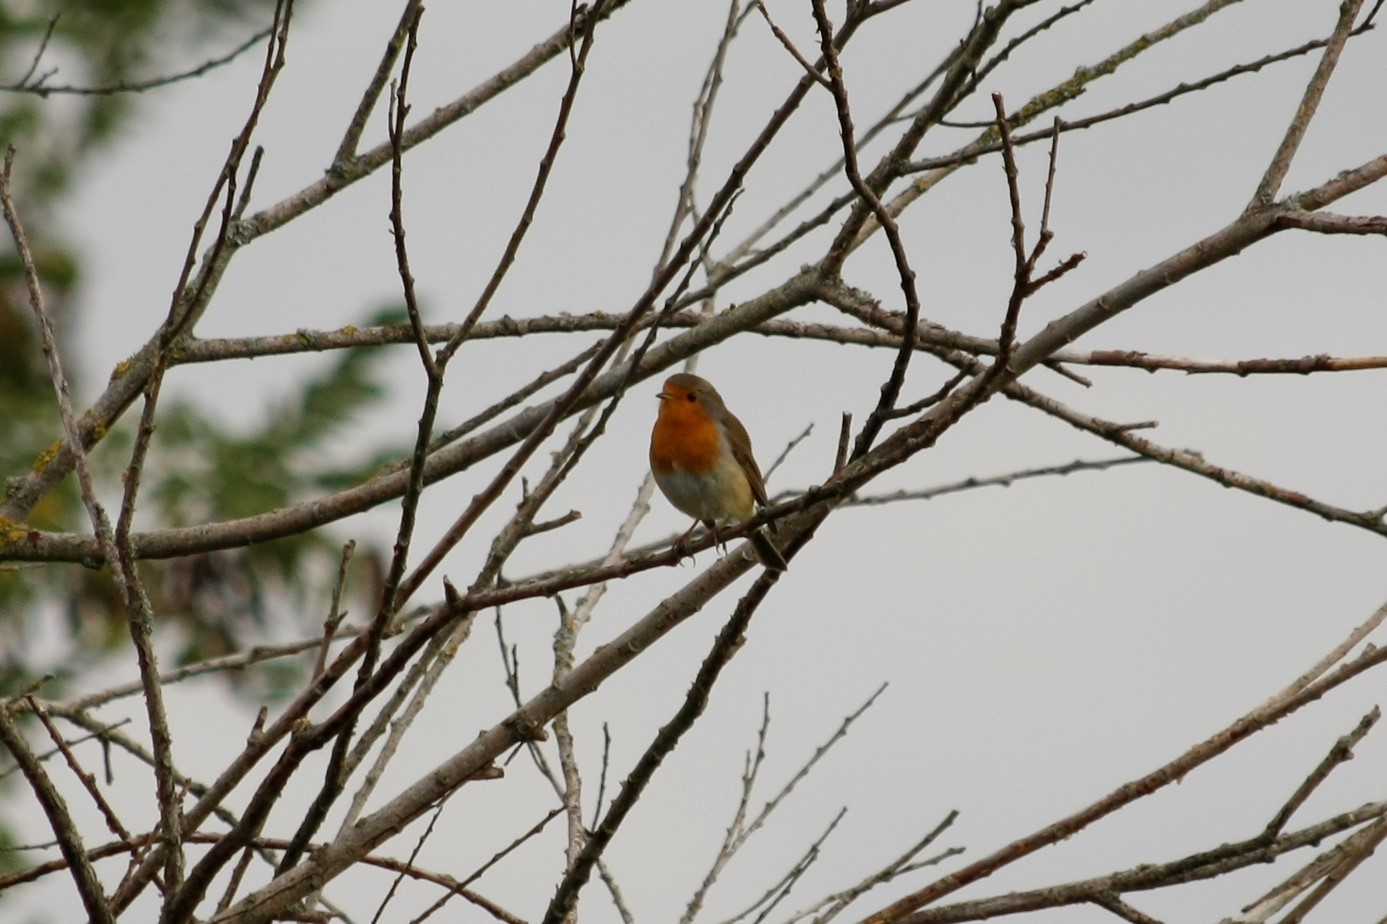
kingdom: Animalia
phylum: Chordata
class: Aves
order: Passeriformes
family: Muscicapidae
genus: Erithacus
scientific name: Erithacus rubecula
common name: European robin
